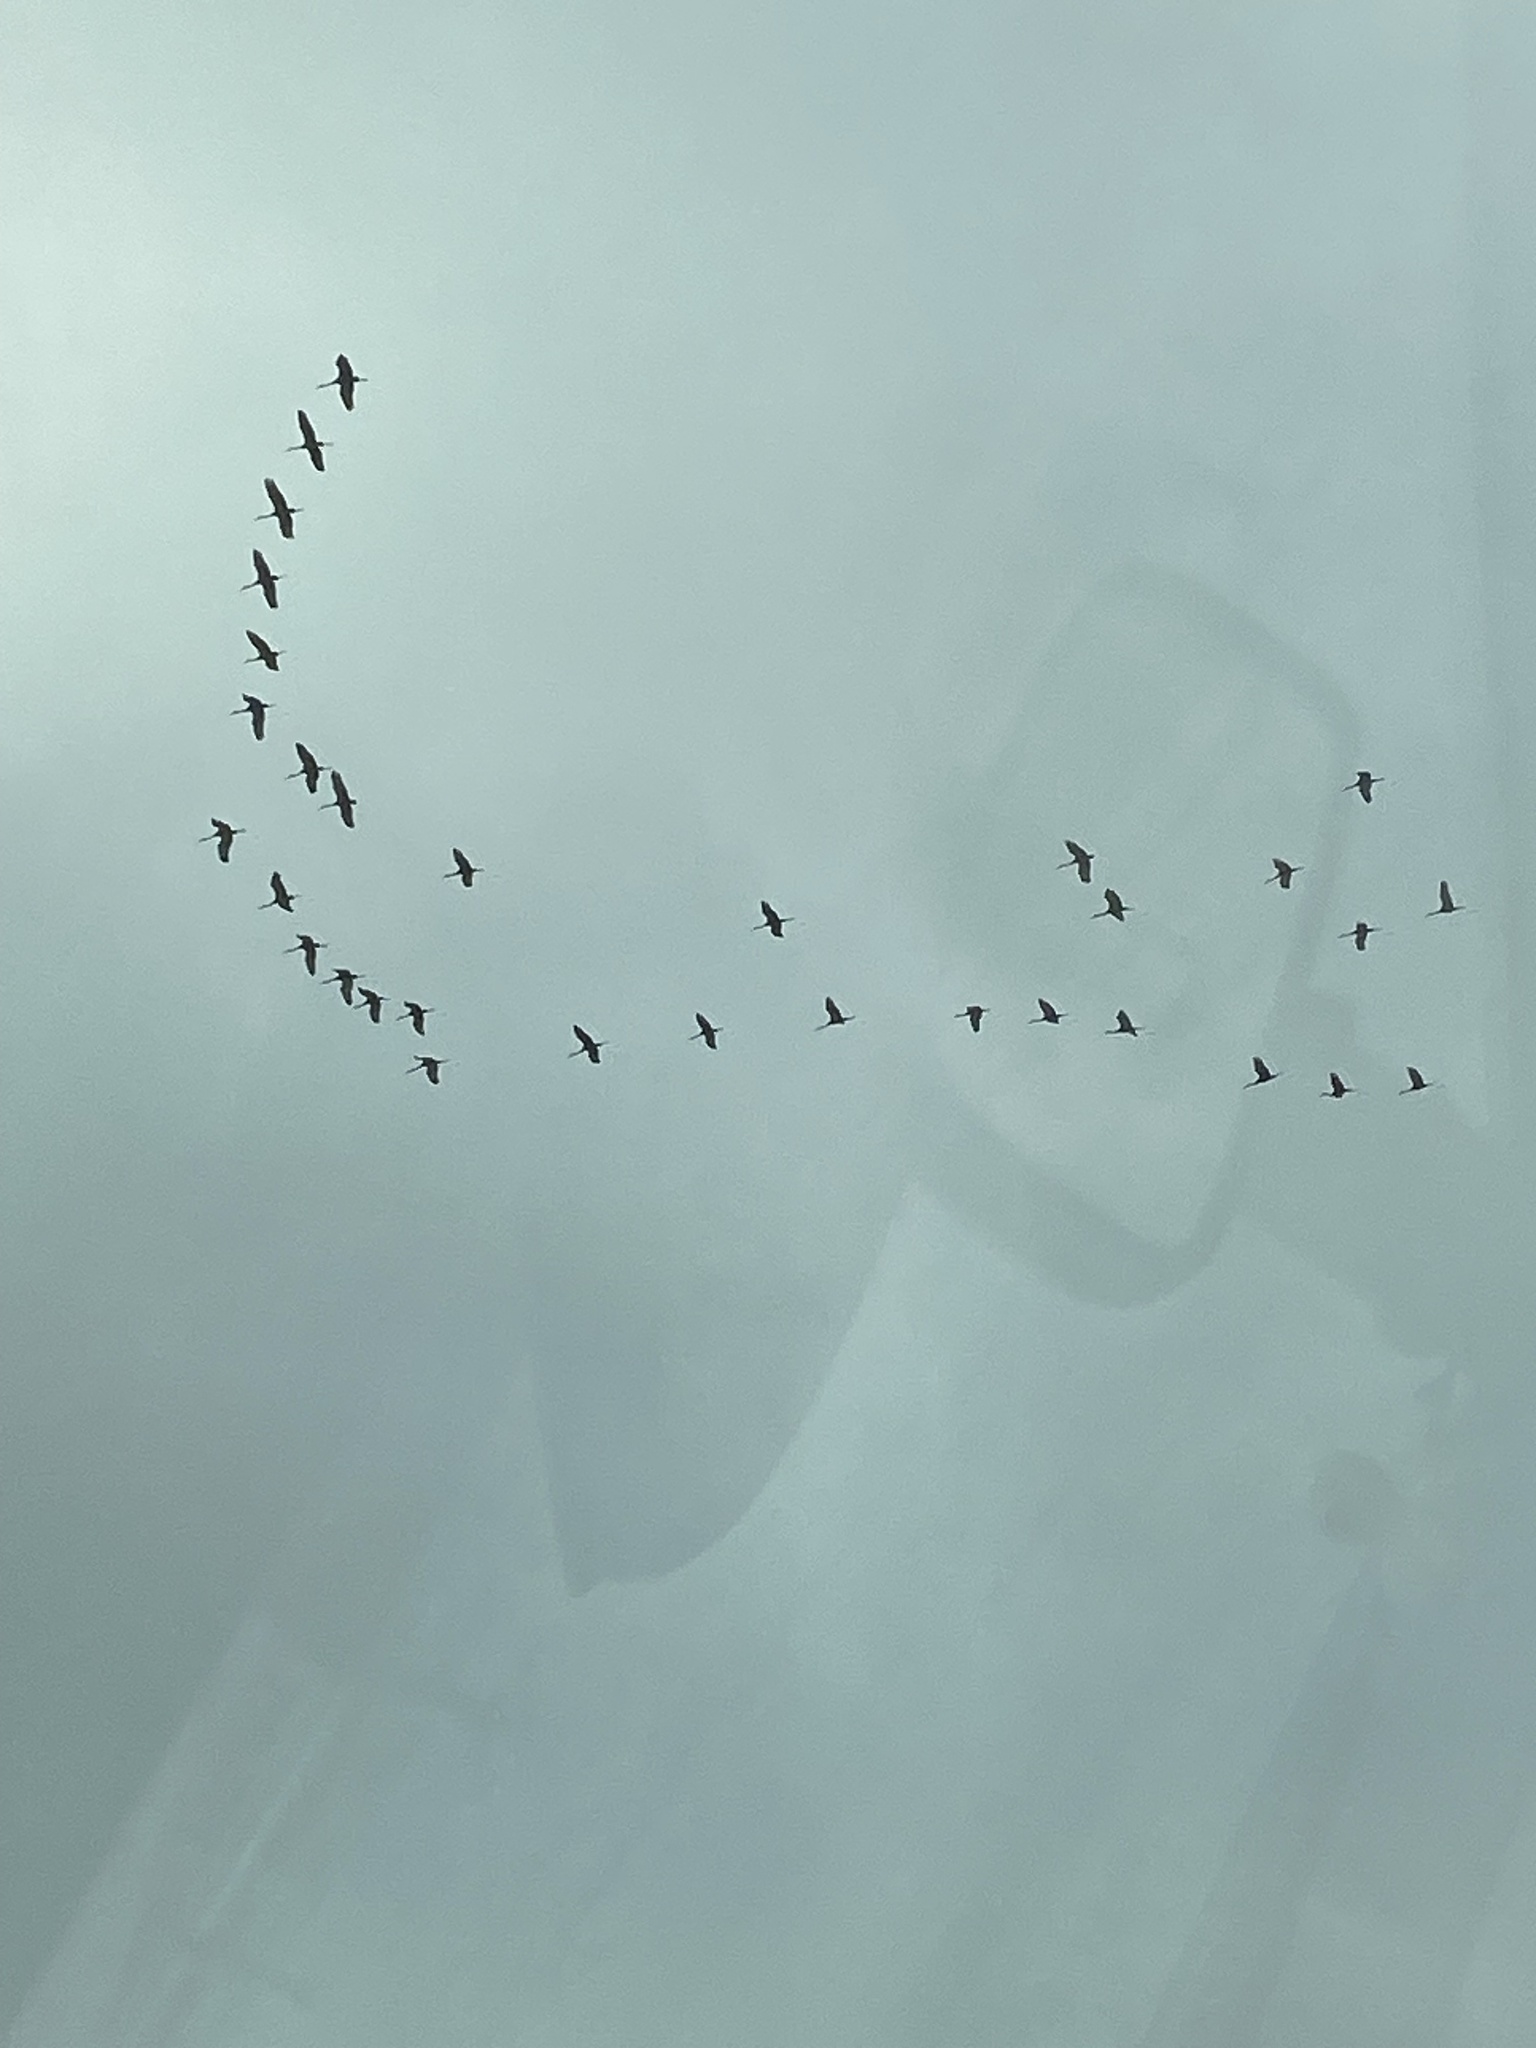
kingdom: Animalia
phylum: Chordata
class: Aves
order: Gruiformes
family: Gruidae
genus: Grus
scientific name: Grus canadensis
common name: Sandhill crane
